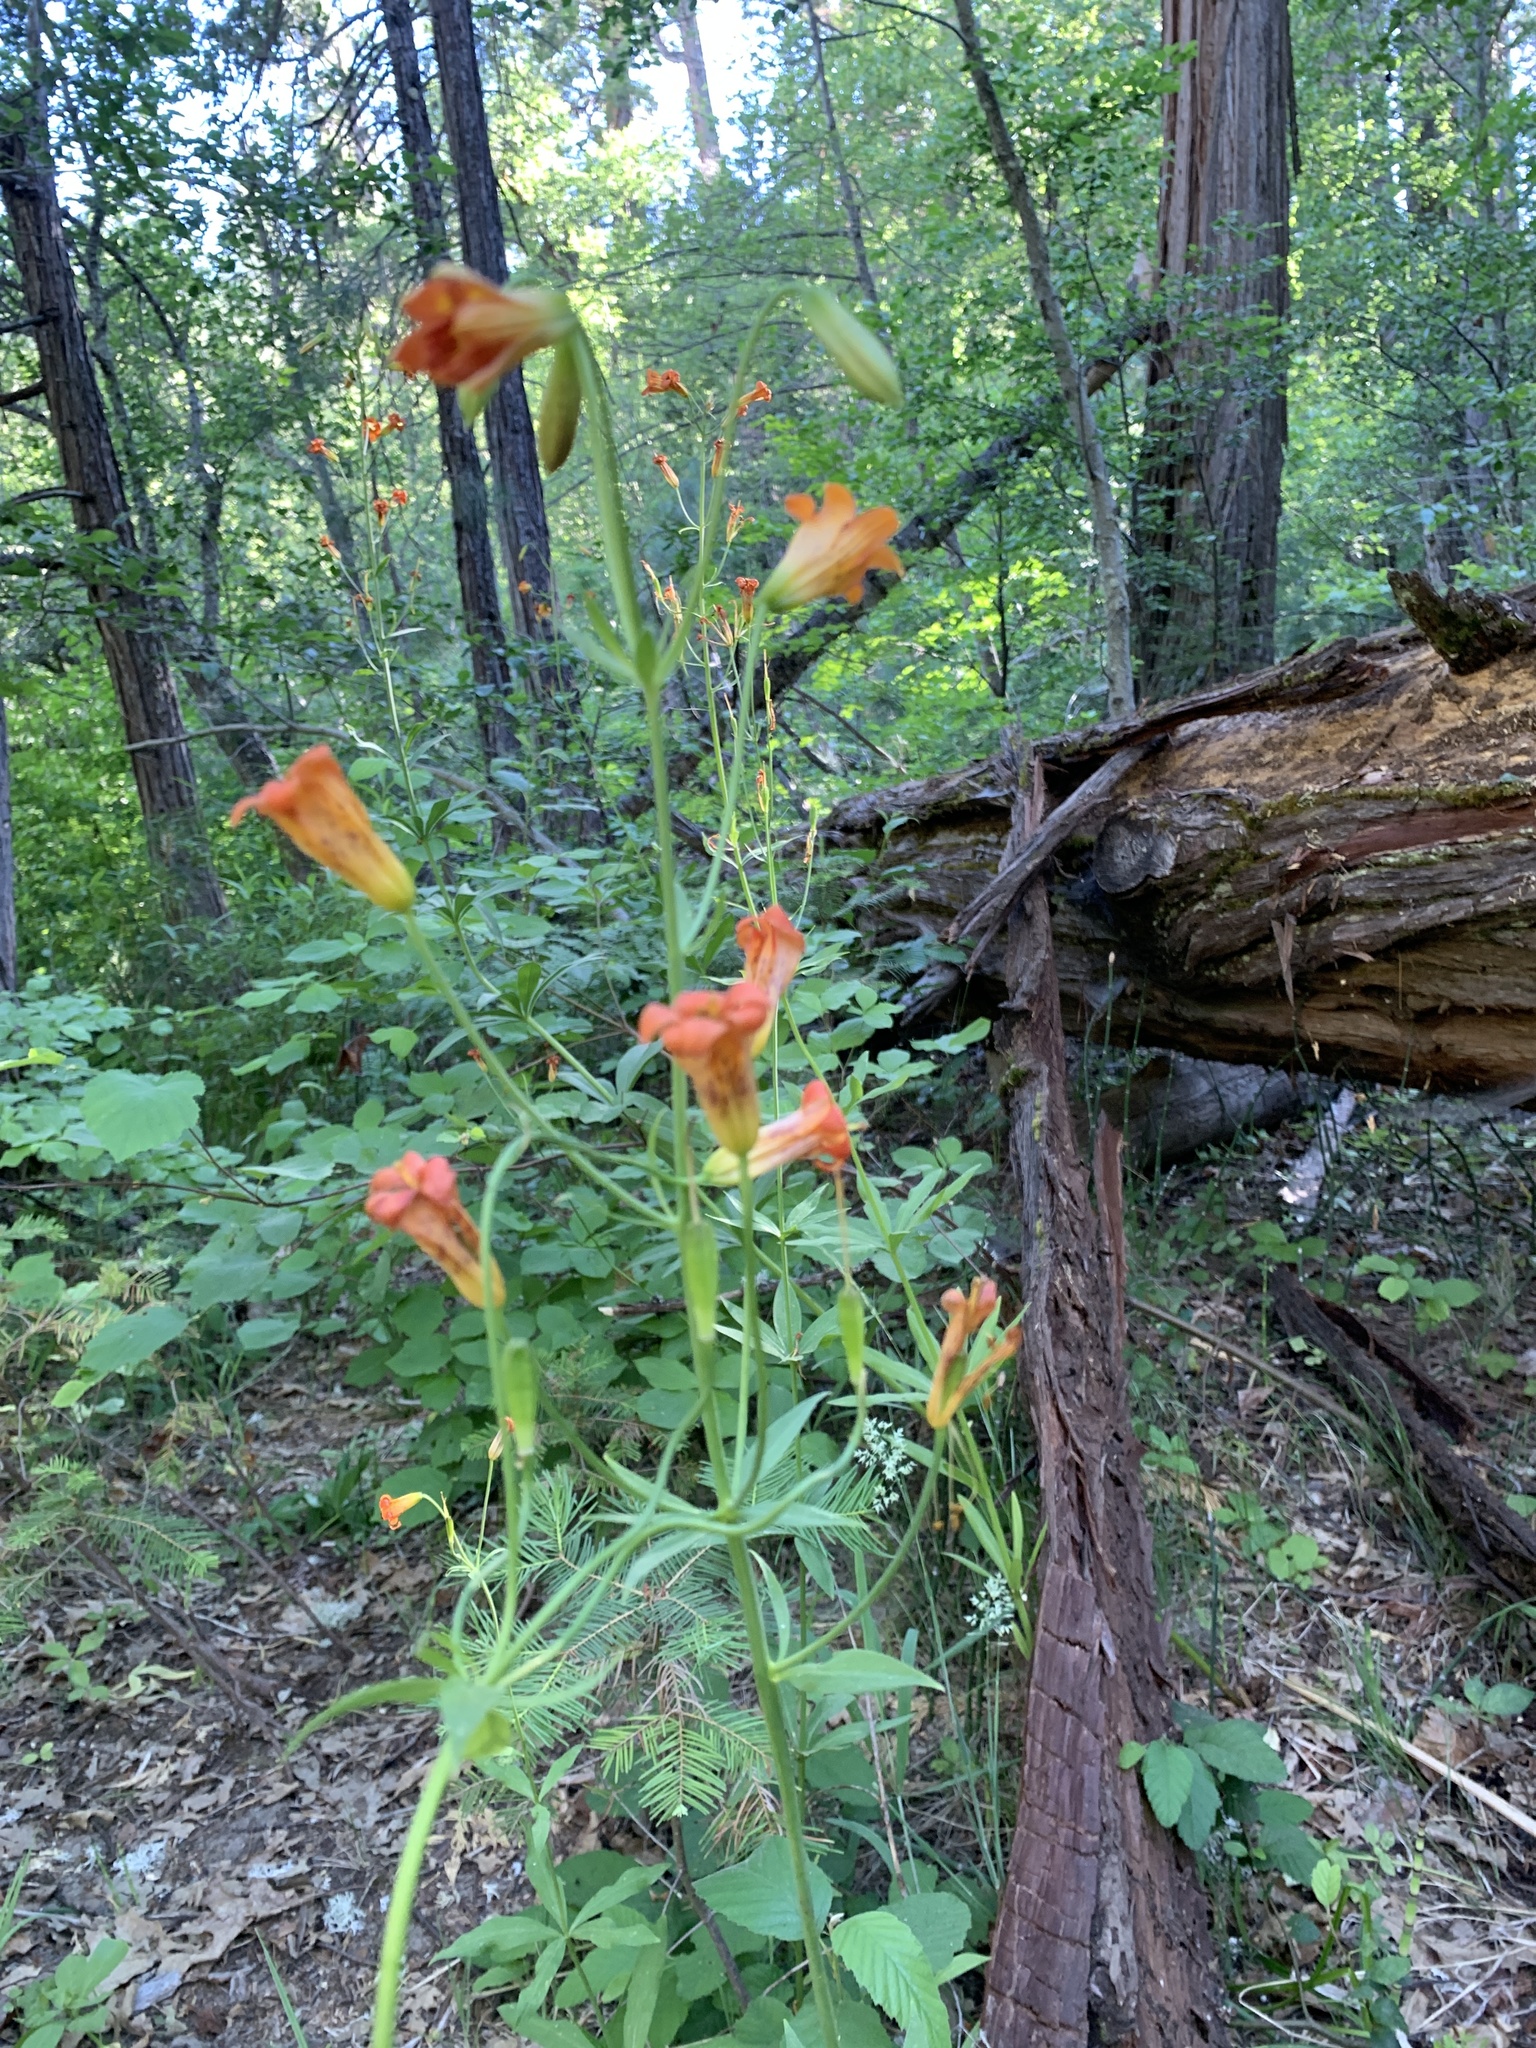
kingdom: Plantae
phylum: Tracheophyta
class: Liliopsida
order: Liliales
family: Liliaceae
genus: Lilium
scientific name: Lilium parvum
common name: Alpine lily
